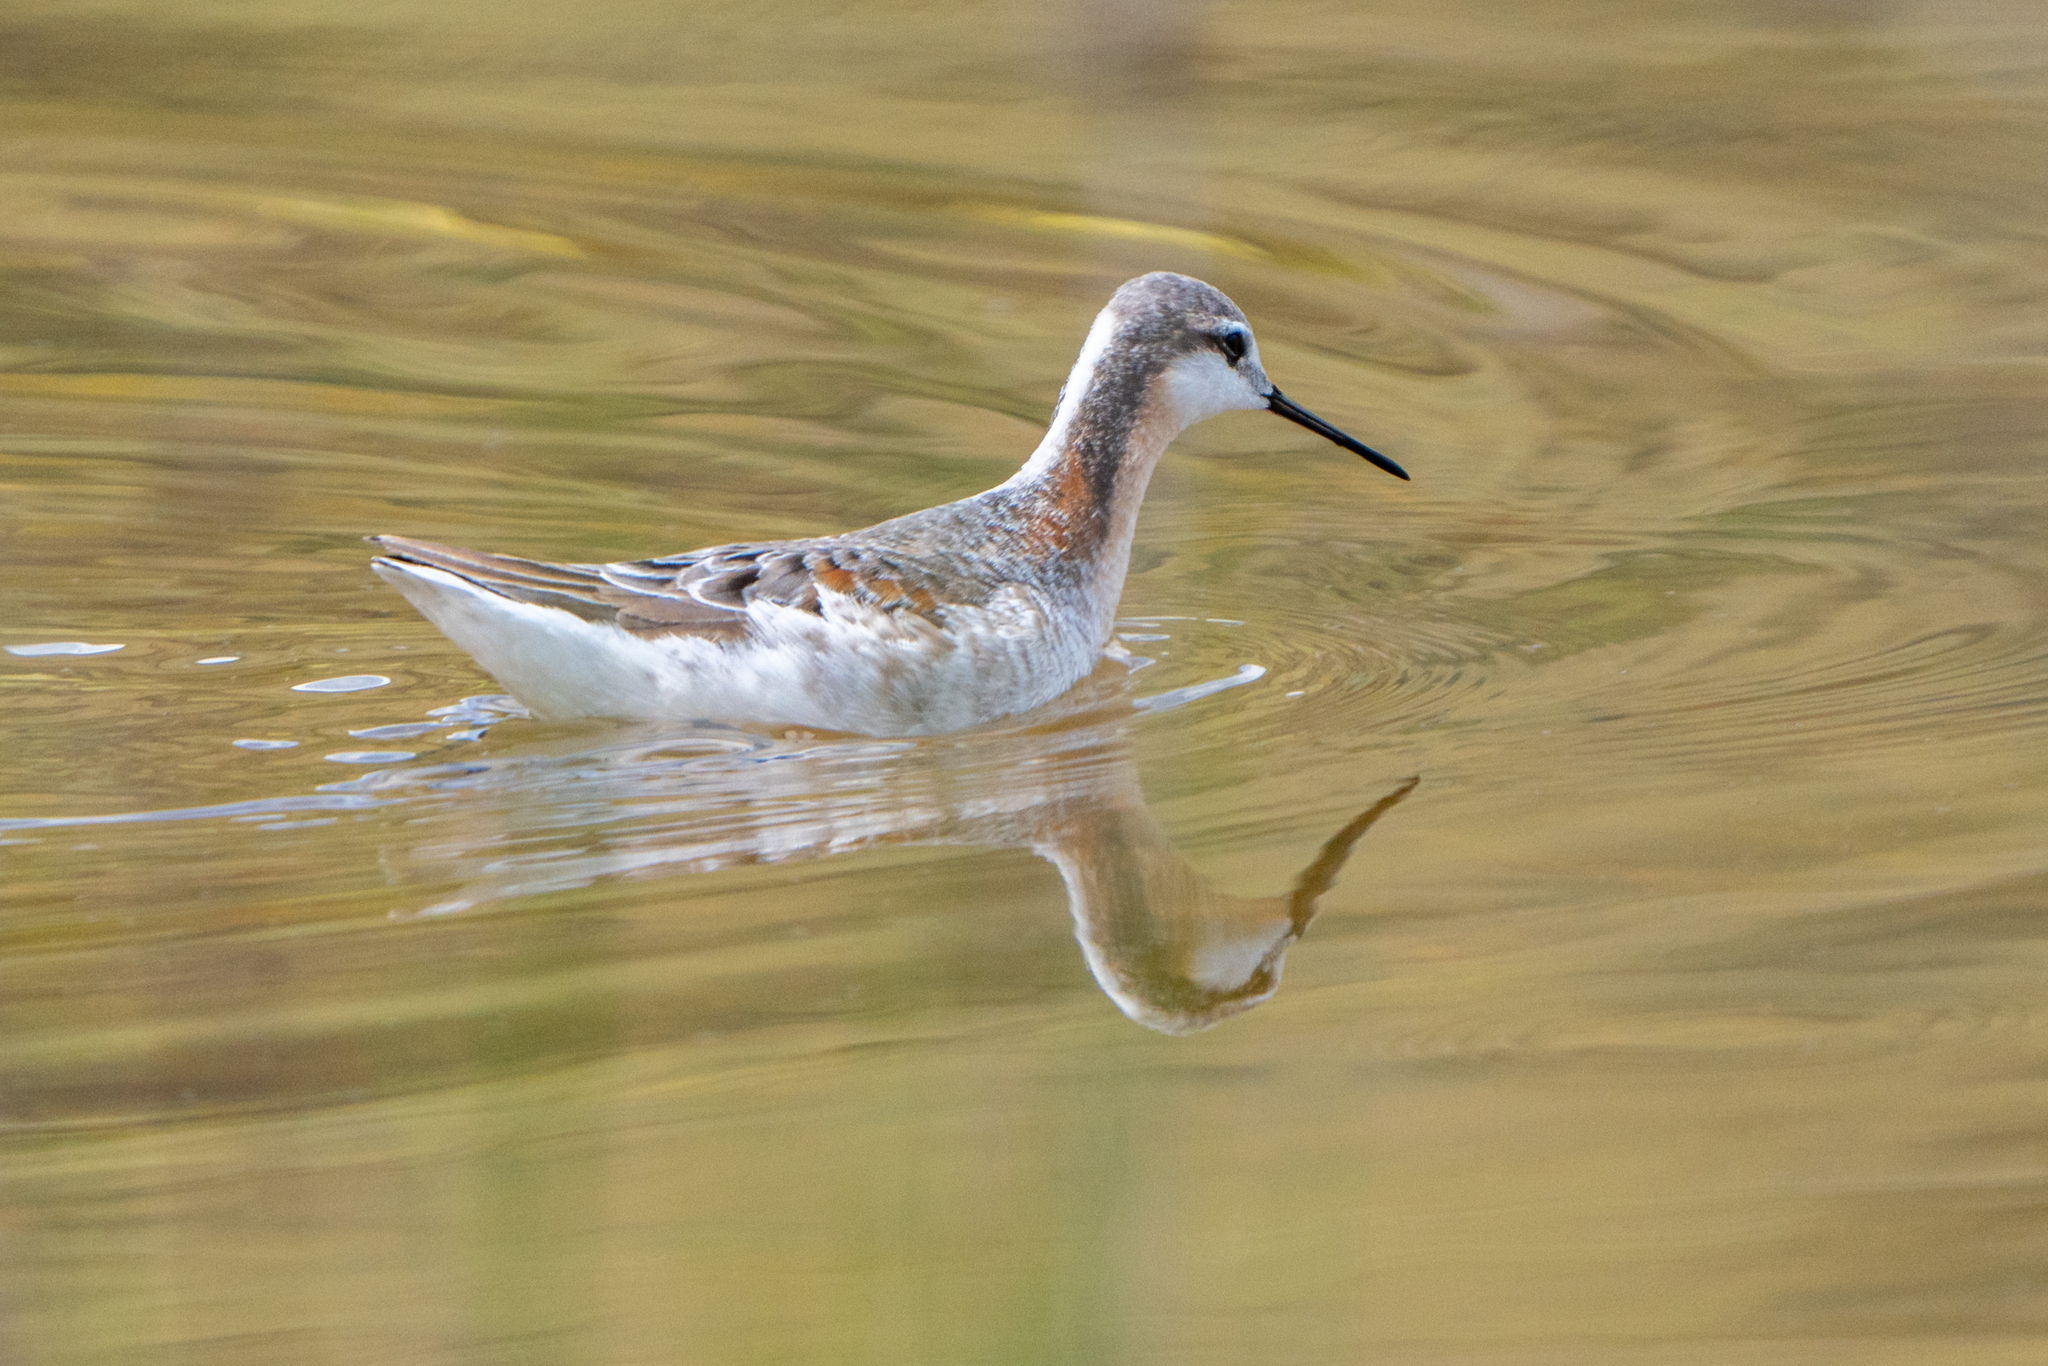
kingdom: Animalia
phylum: Chordata
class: Aves
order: Charadriiformes
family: Scolopacidae
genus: Phalaropus
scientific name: Phalaropus tricolor
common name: Wilson's phalarope
